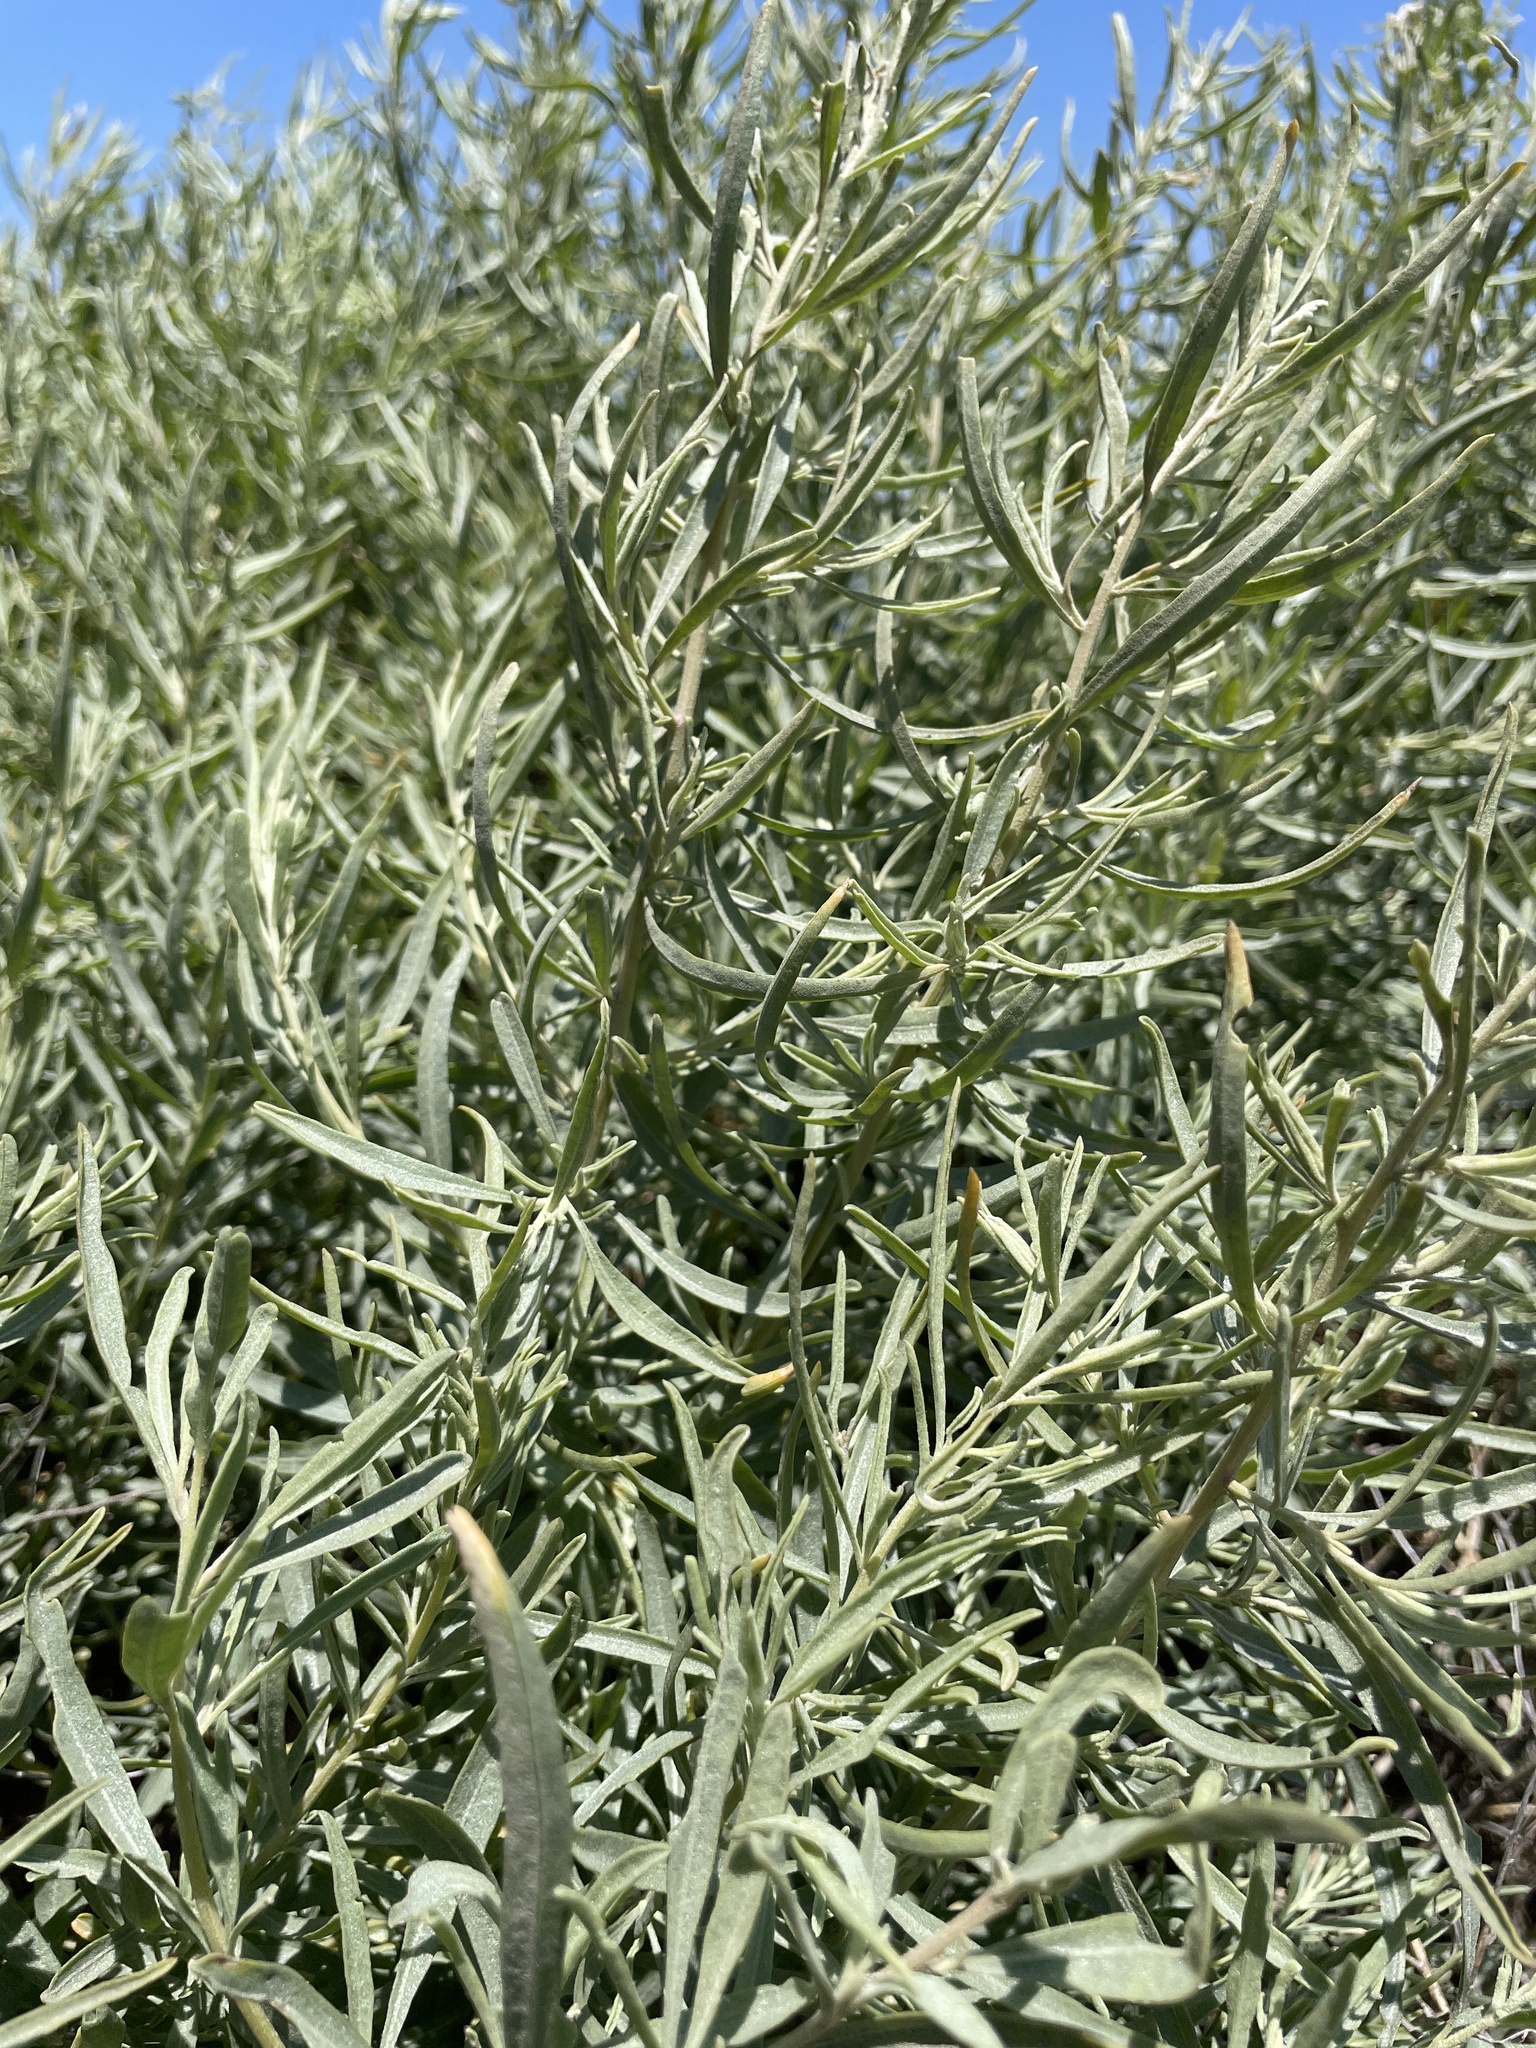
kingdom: Plantae
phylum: Tracheophyta
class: Magnoliopsida
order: Caryophyllales
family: Amaranthaceae
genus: Atriplex
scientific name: Atriplex canescens
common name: Four-wing saltbush
